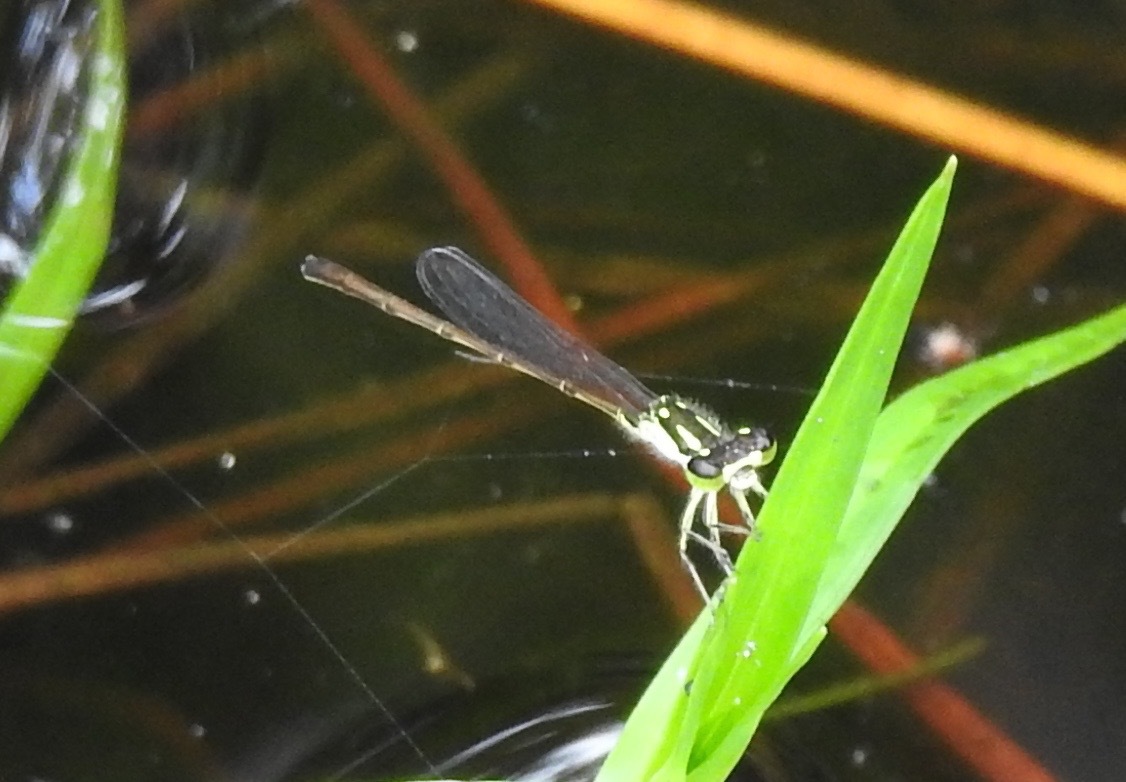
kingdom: Animalia
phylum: Arthropoda
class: Insecta
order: Odonata
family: Coenagrionidae
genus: Ischnura
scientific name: Ischnura posita
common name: Fragile forktail
